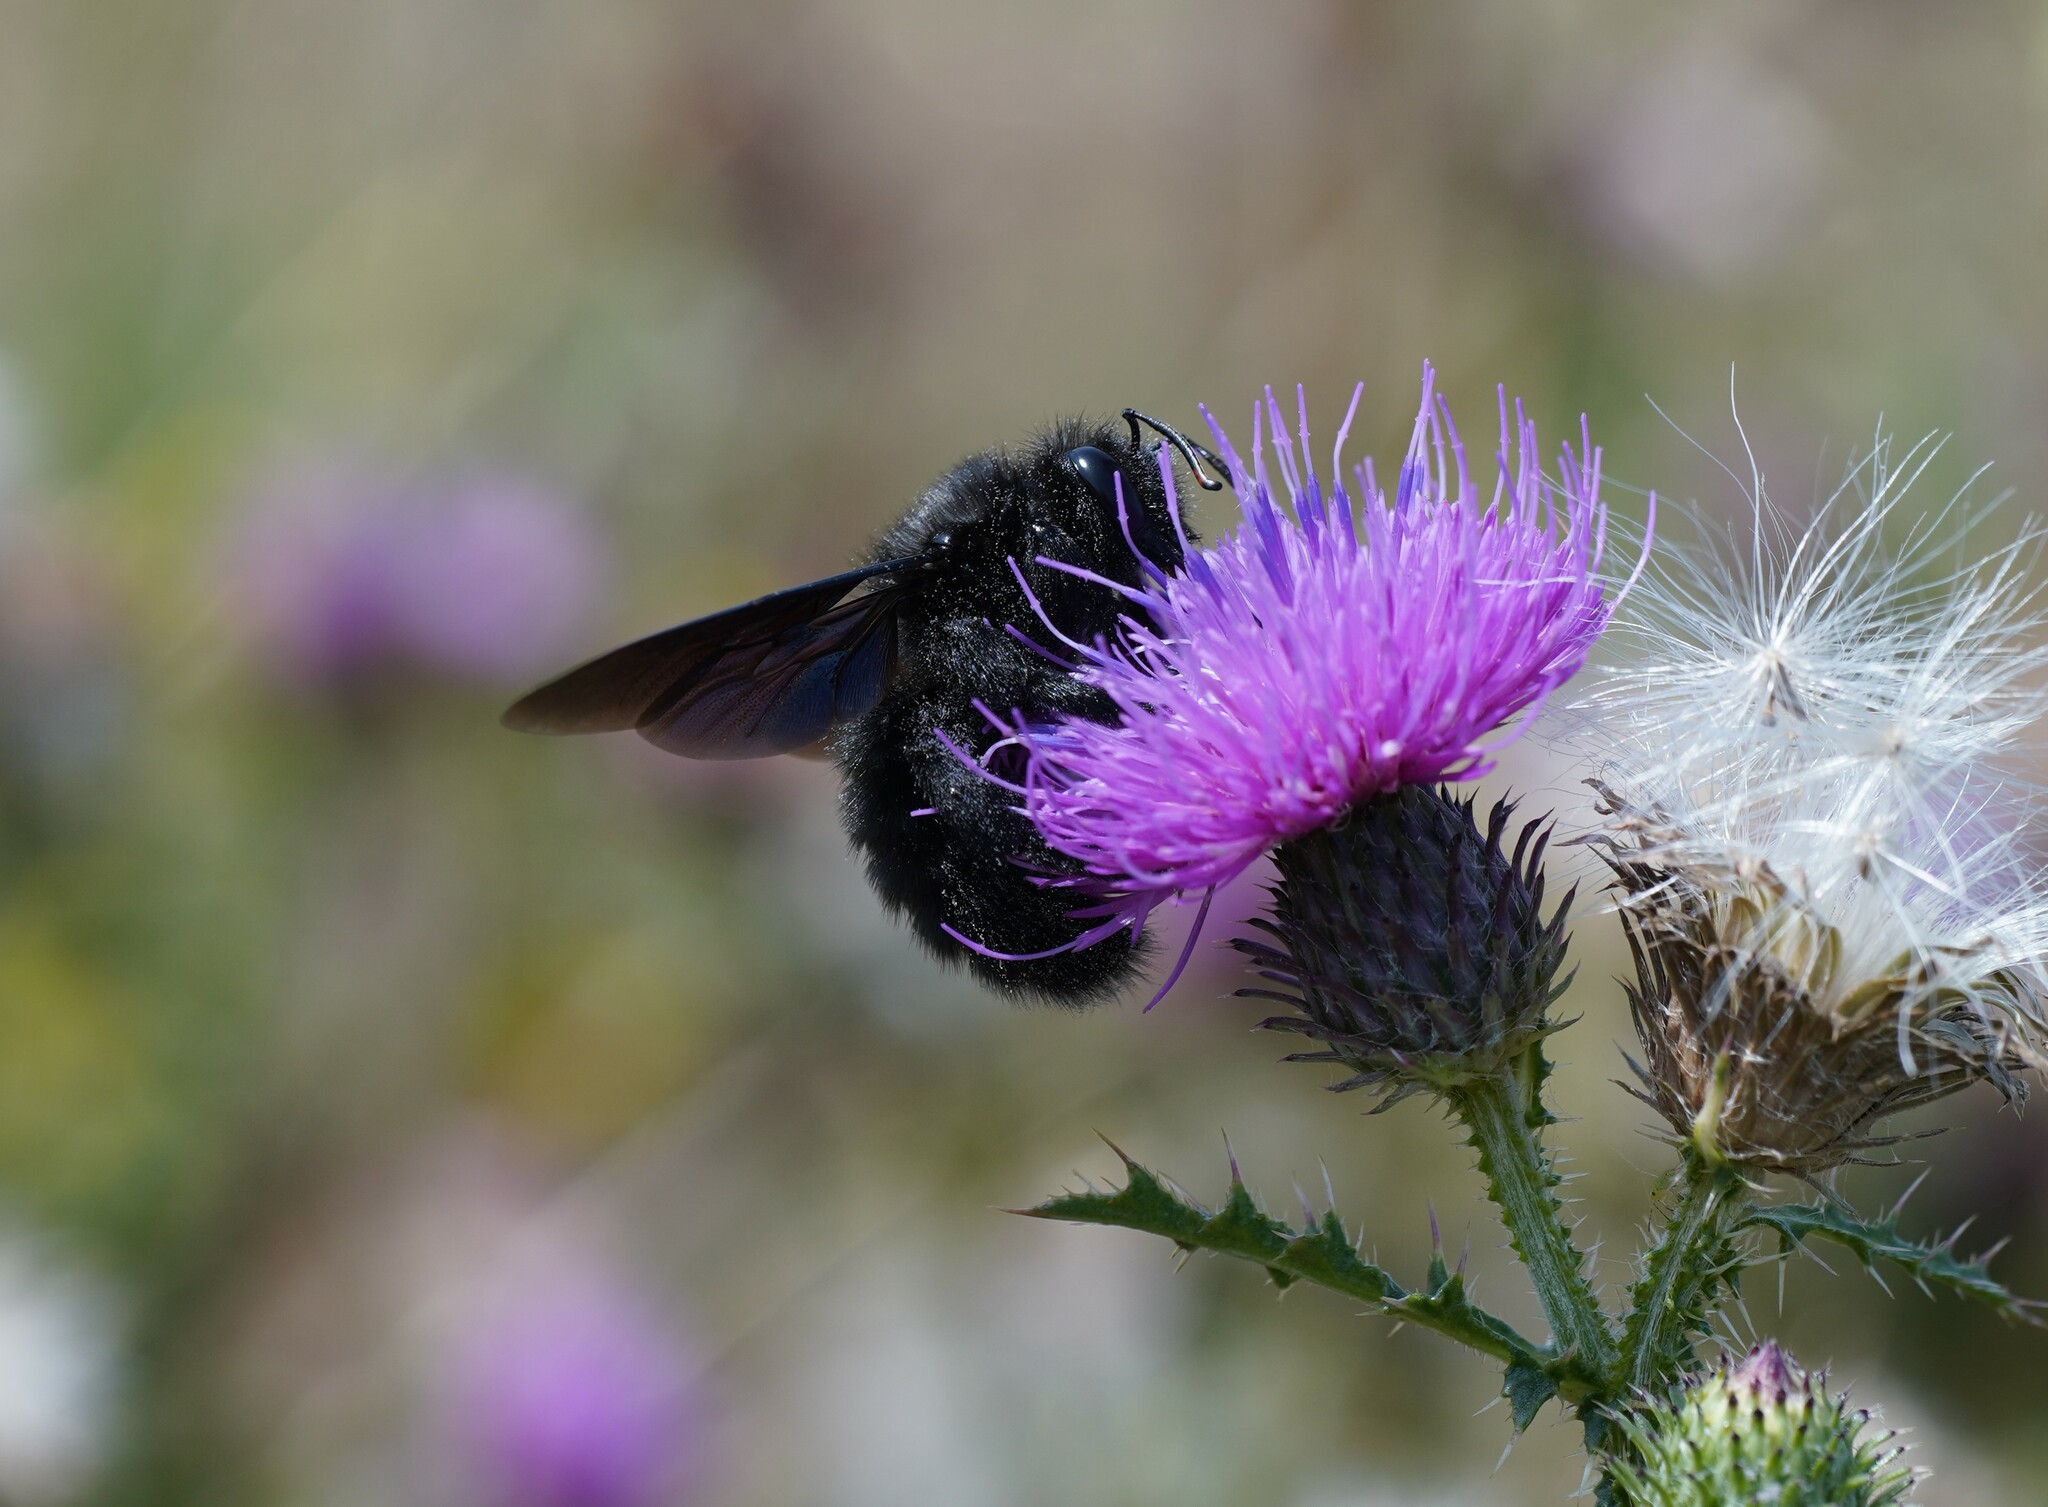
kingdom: Animalia
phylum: Arthropoda
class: Insecta
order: Hymenoptera
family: Apidae
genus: Xylocopa
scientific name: Xylocopa violacea
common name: Violet carpenter bee
